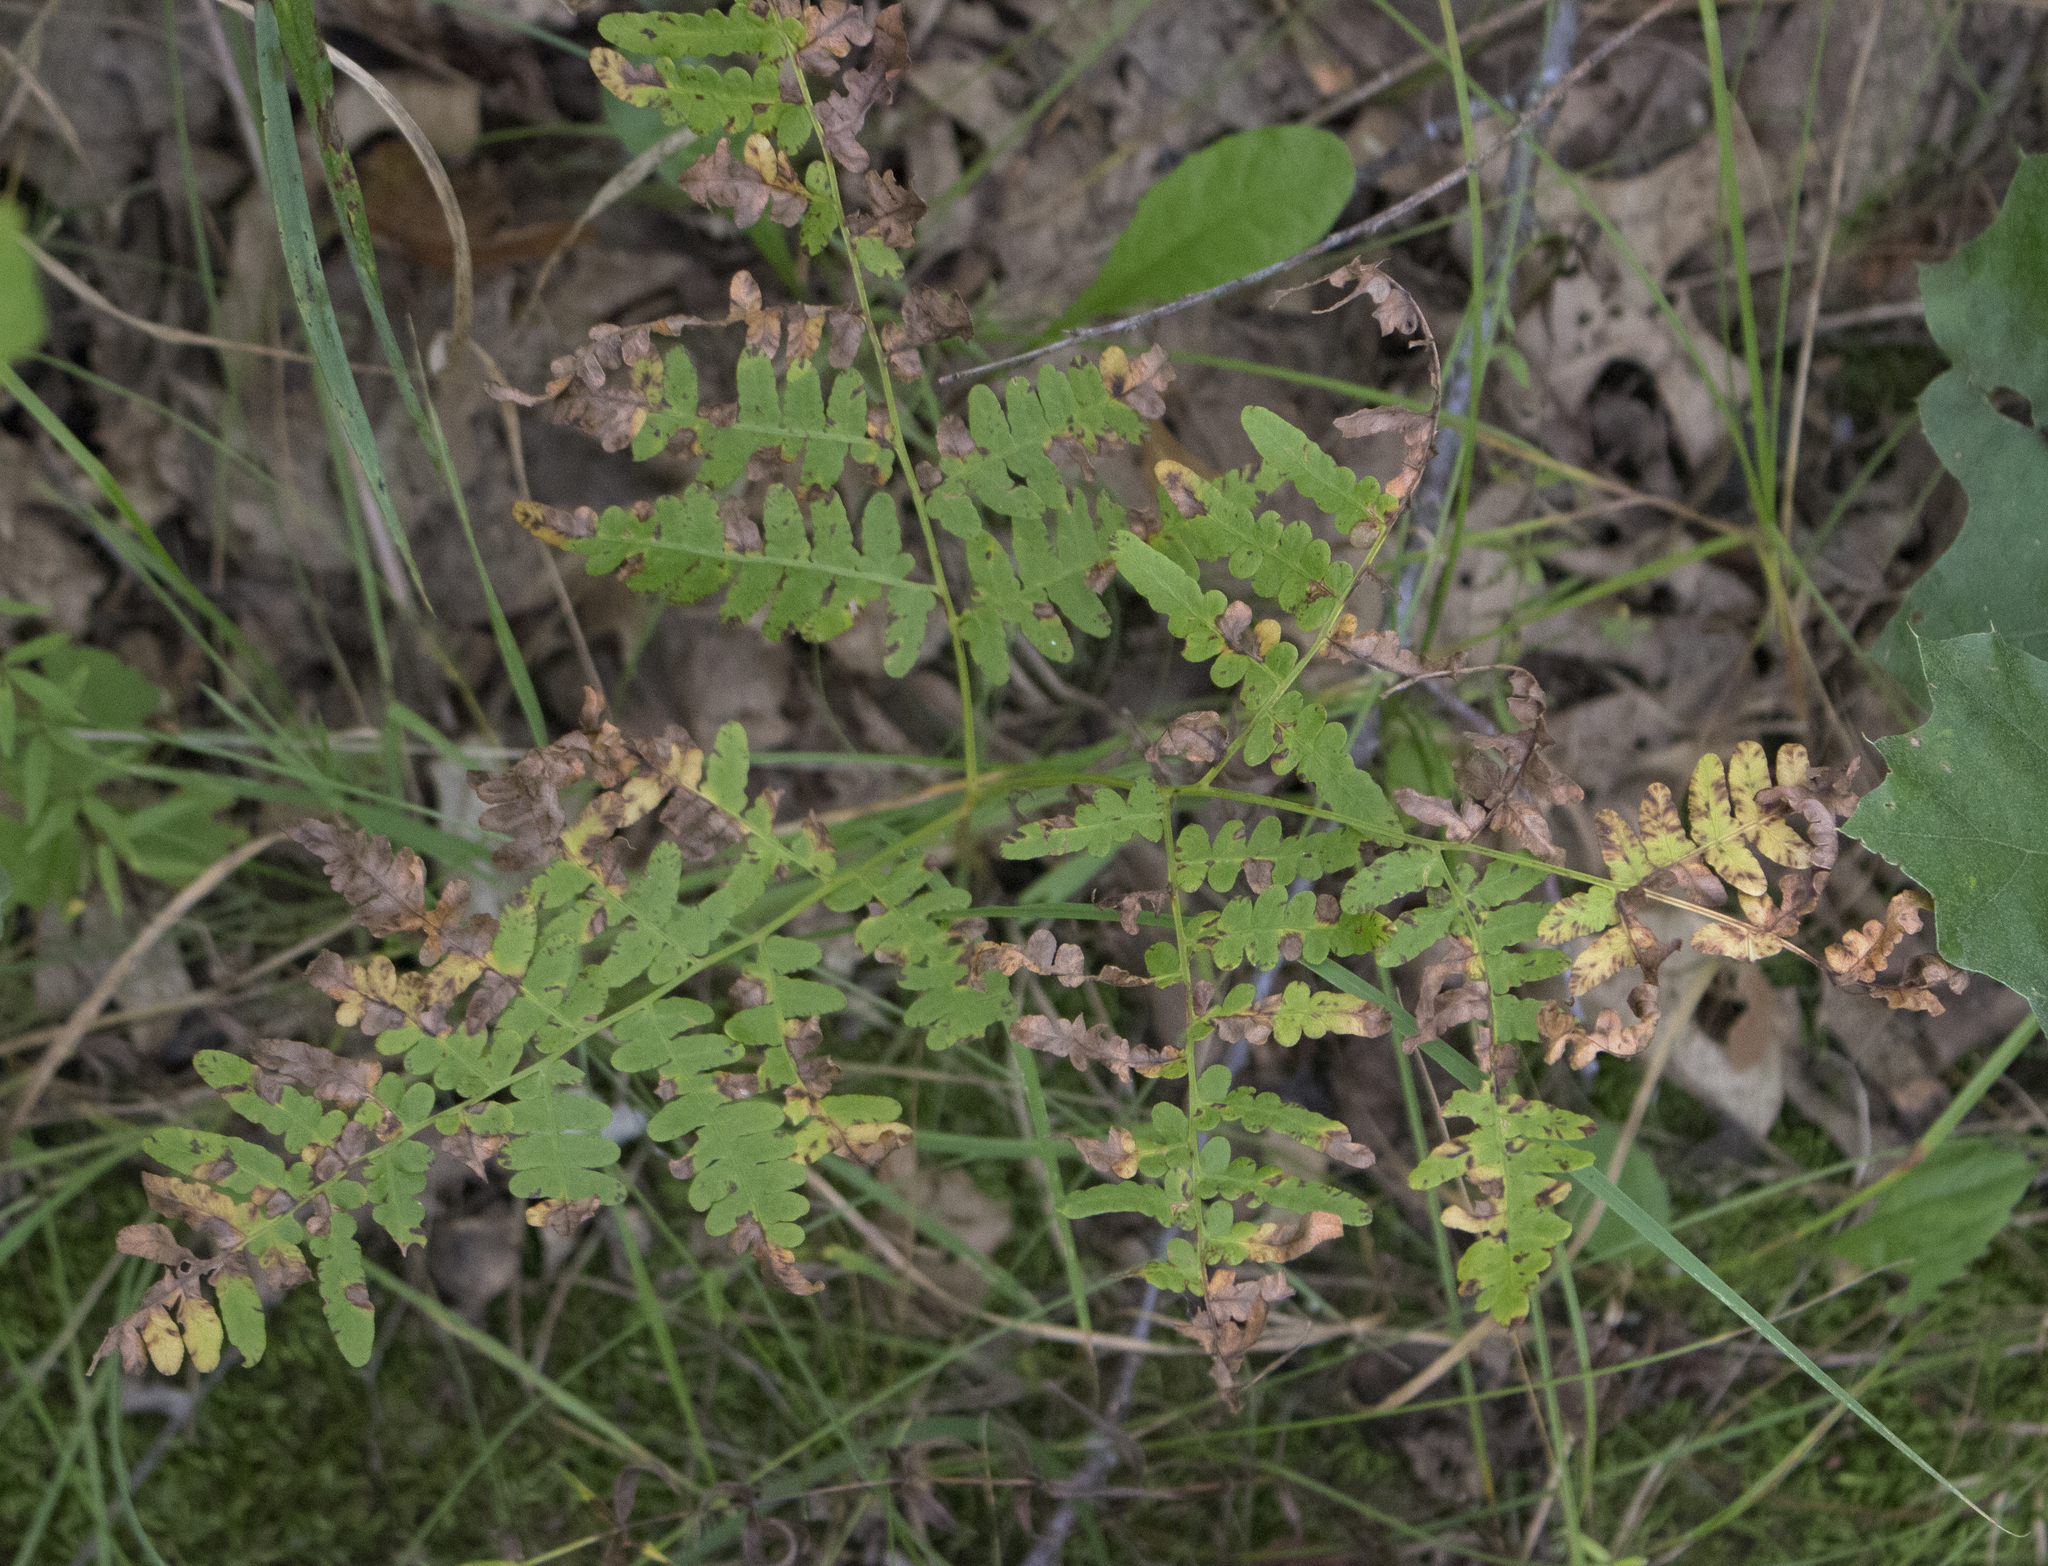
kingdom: Plantae
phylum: Tracheophyta
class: Polypodiopsida
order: Polypodiales
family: Dennstaedtiaceae
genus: Pteridium
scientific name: Pteridium aquilinum
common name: Bracken
